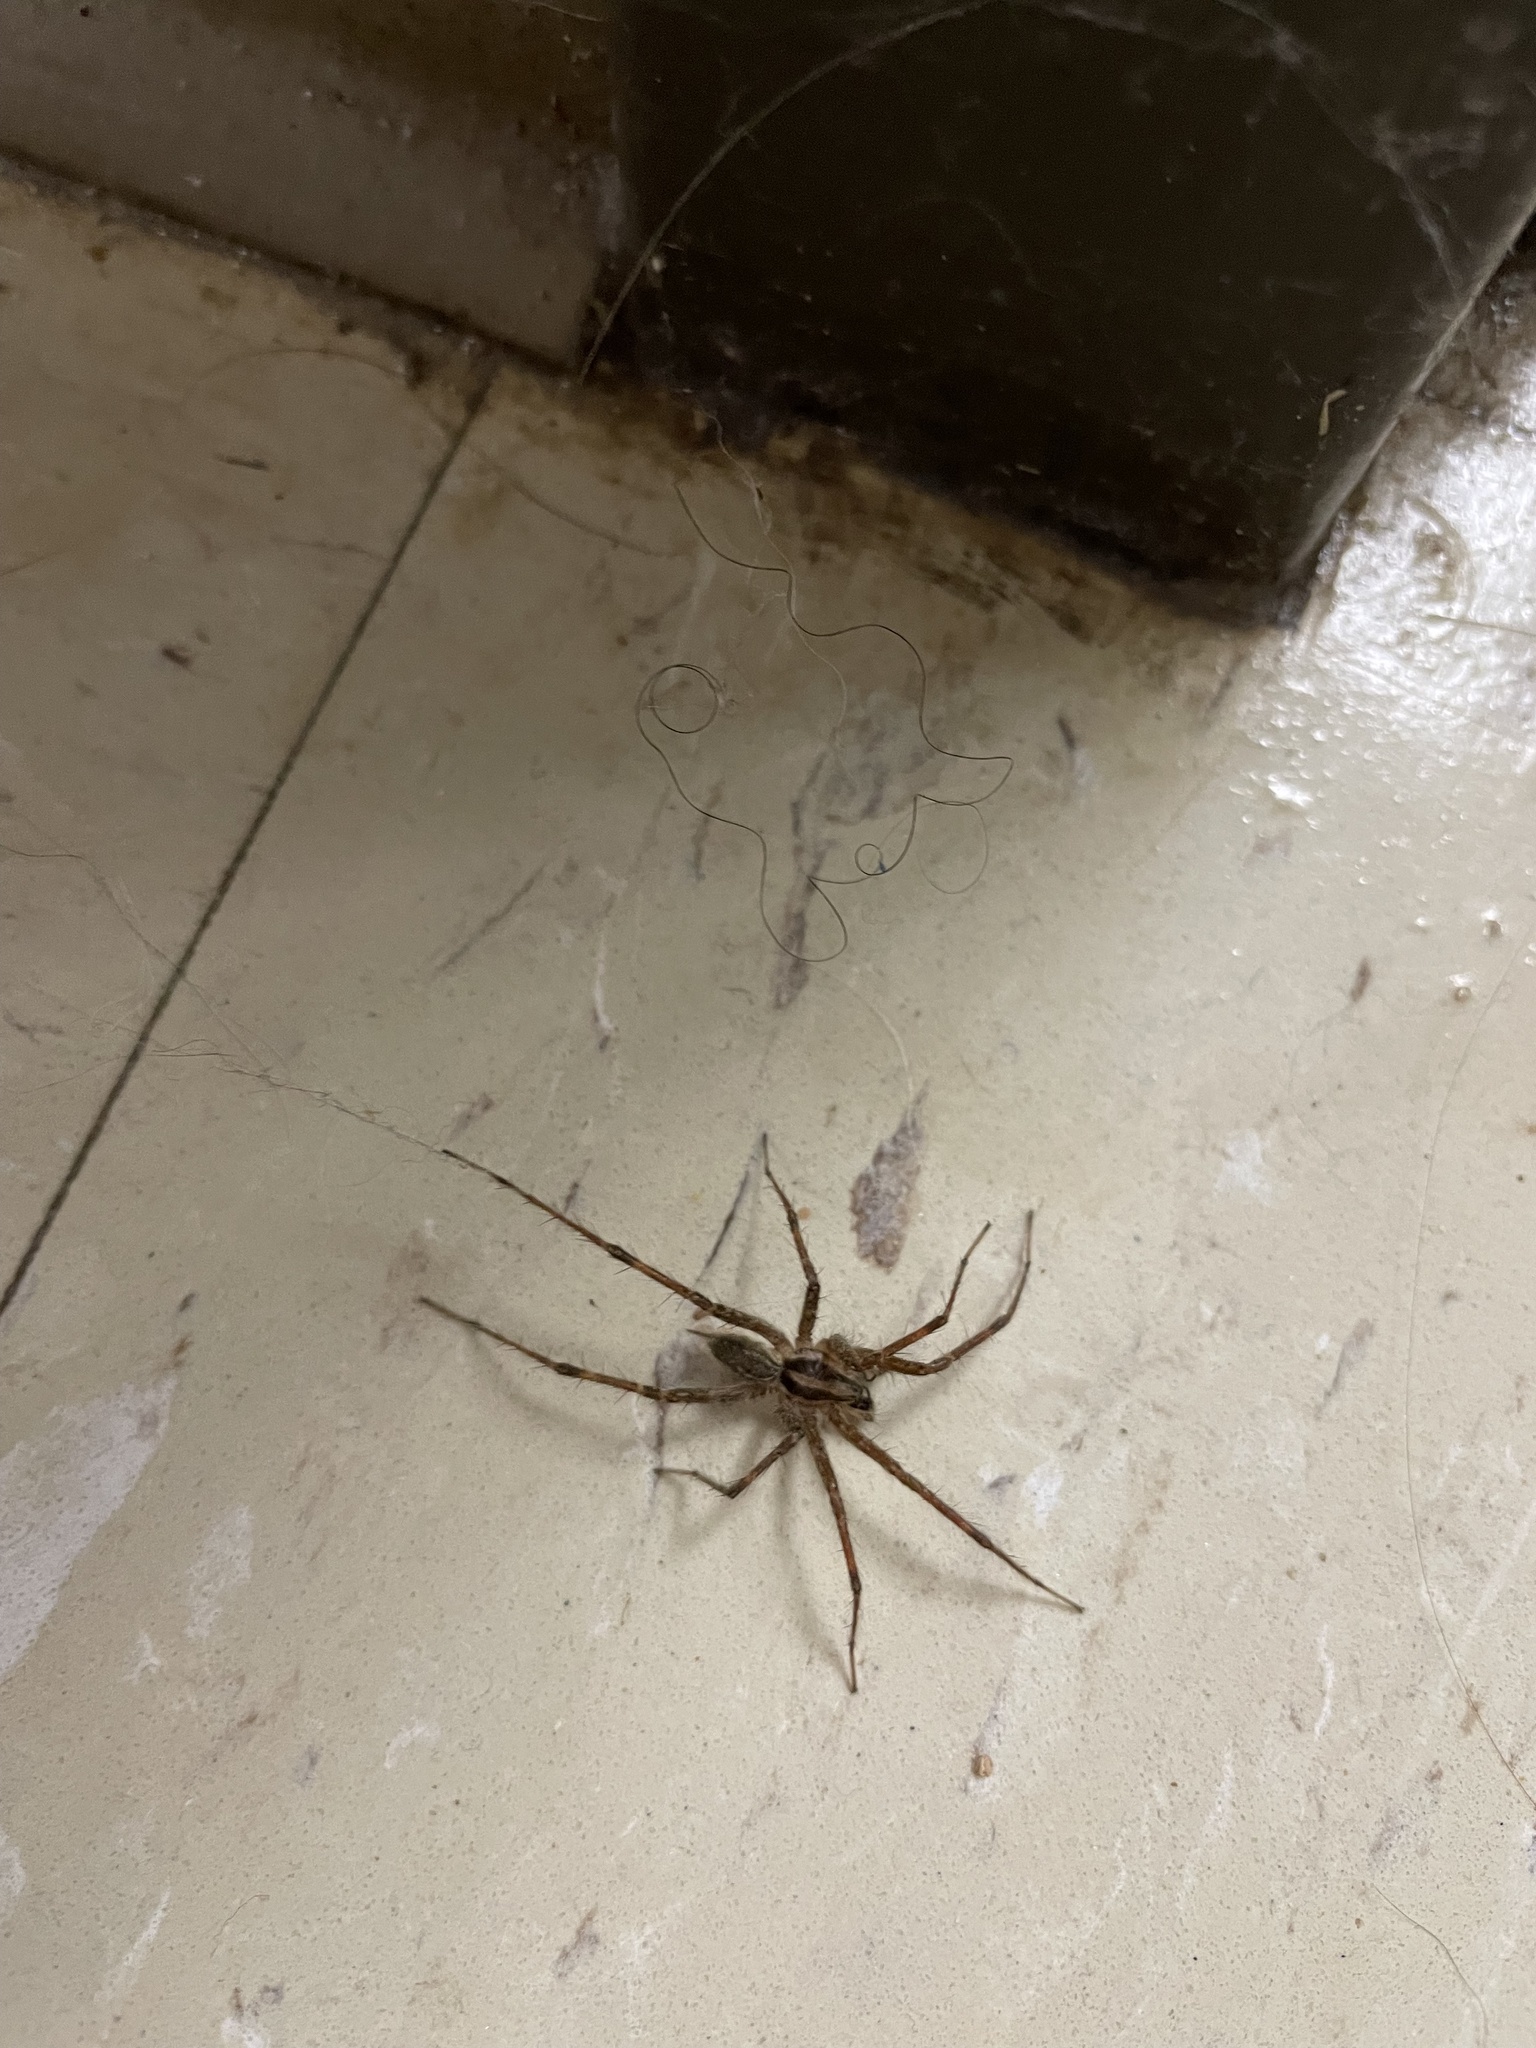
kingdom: Animalia
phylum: Arthropoda
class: Arachnida
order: Araneae
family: Agelenidae
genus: Agelenopsis
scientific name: Agelenopsis
